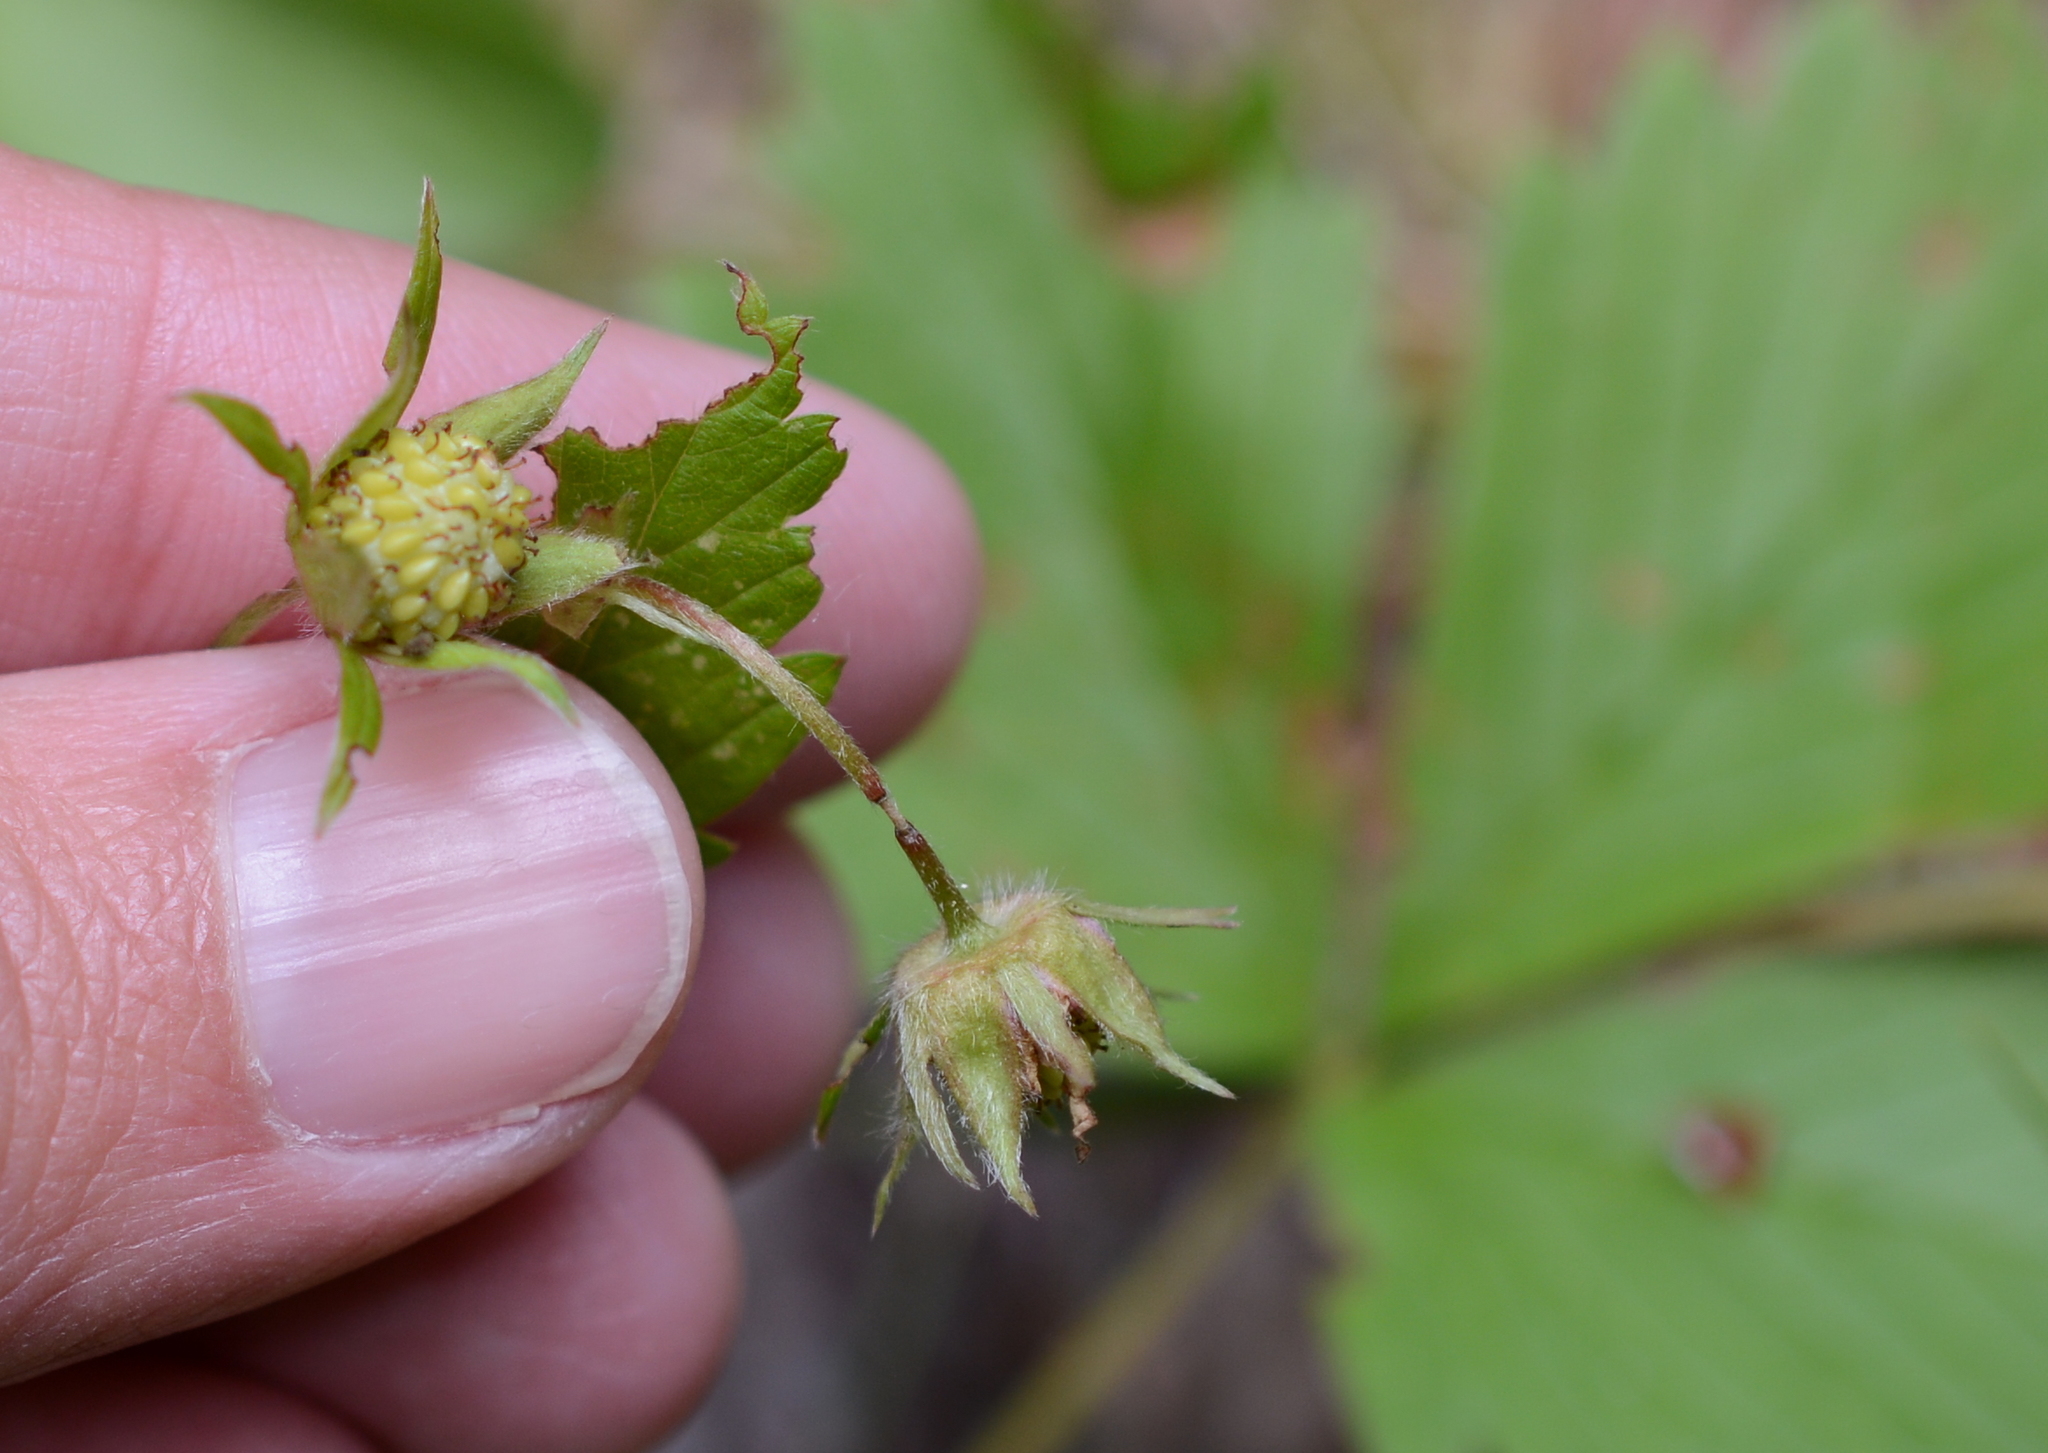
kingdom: Plantae
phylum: Tracheophyta
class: Magnoliopsida
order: Rosales
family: Rosaceae
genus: Fragaria
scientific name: Fragaria vesca
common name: Wild strawberry
